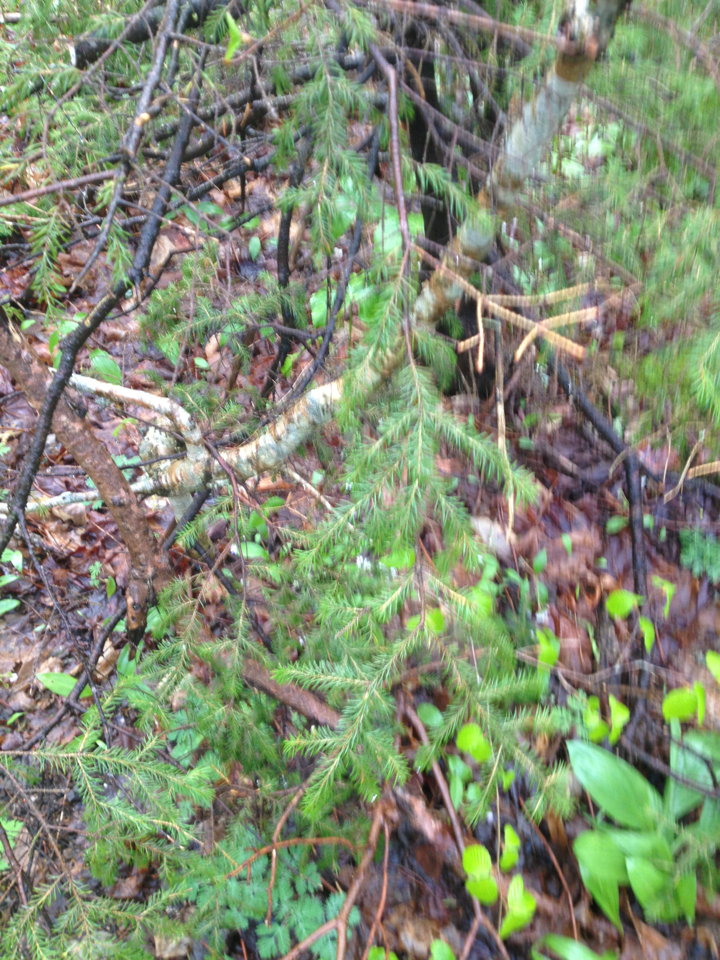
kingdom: Plantae
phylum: Tracheophyta
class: Pinopsida
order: Pinales
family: Pinaceae
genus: Picea
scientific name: Picea rubens
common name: Red spruce
